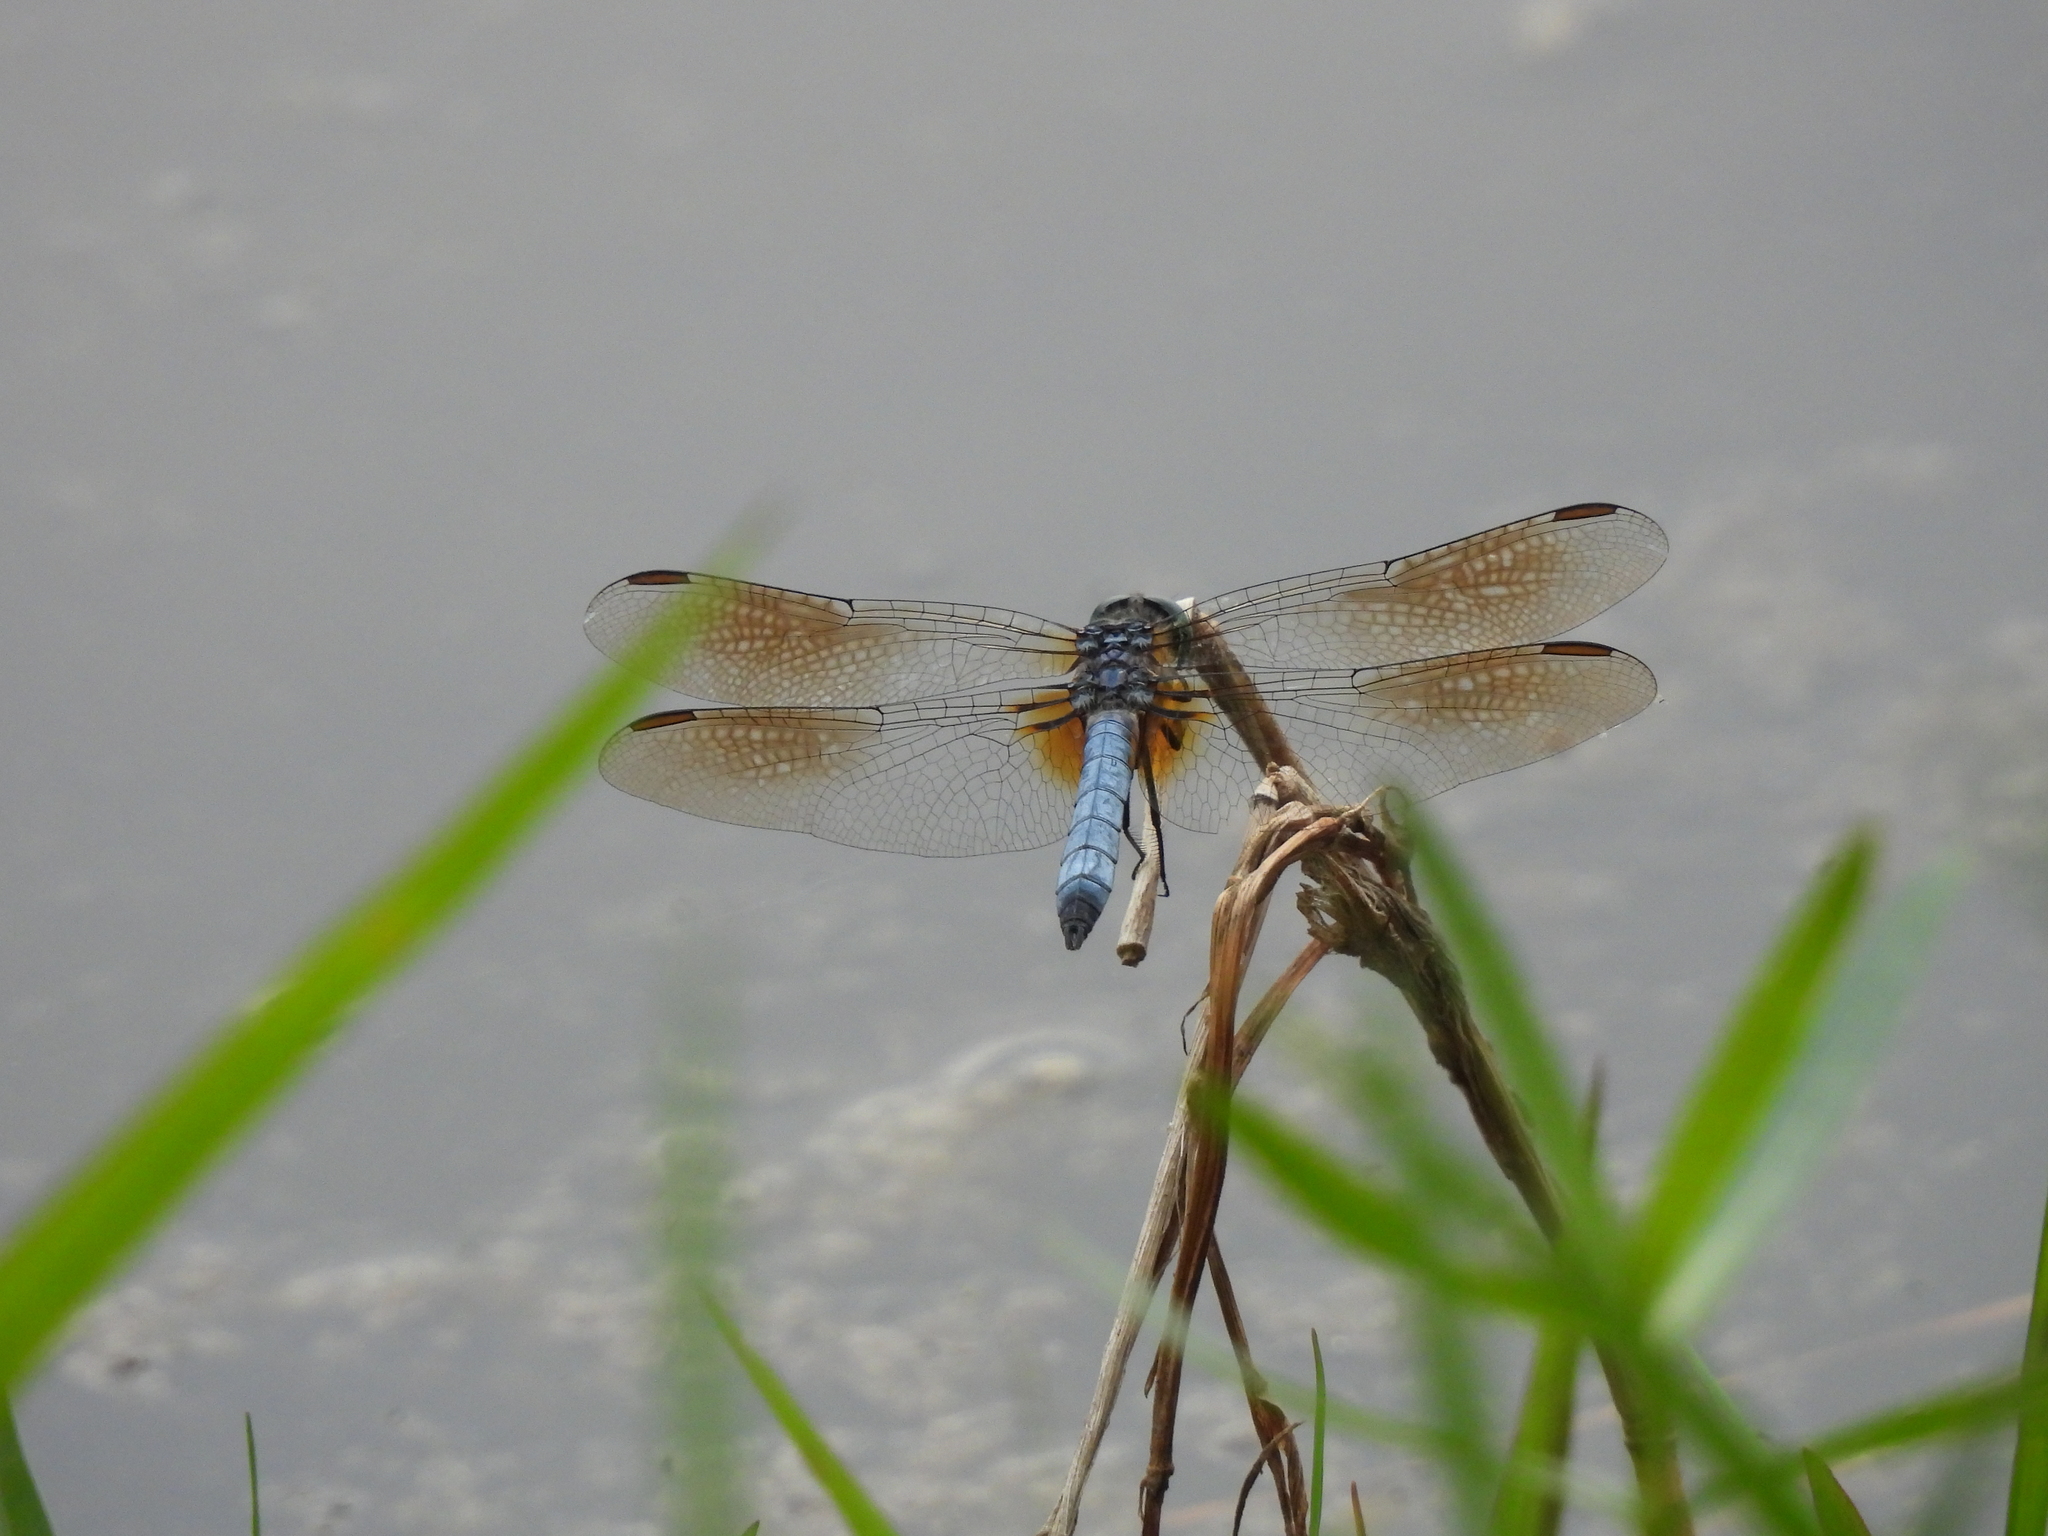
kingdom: Animalia
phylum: Arthropoda
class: Insecta
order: Odonata
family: Libellulidae
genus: Pachydiplax
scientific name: Pachydiplax longipennis
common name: Blue dasher
